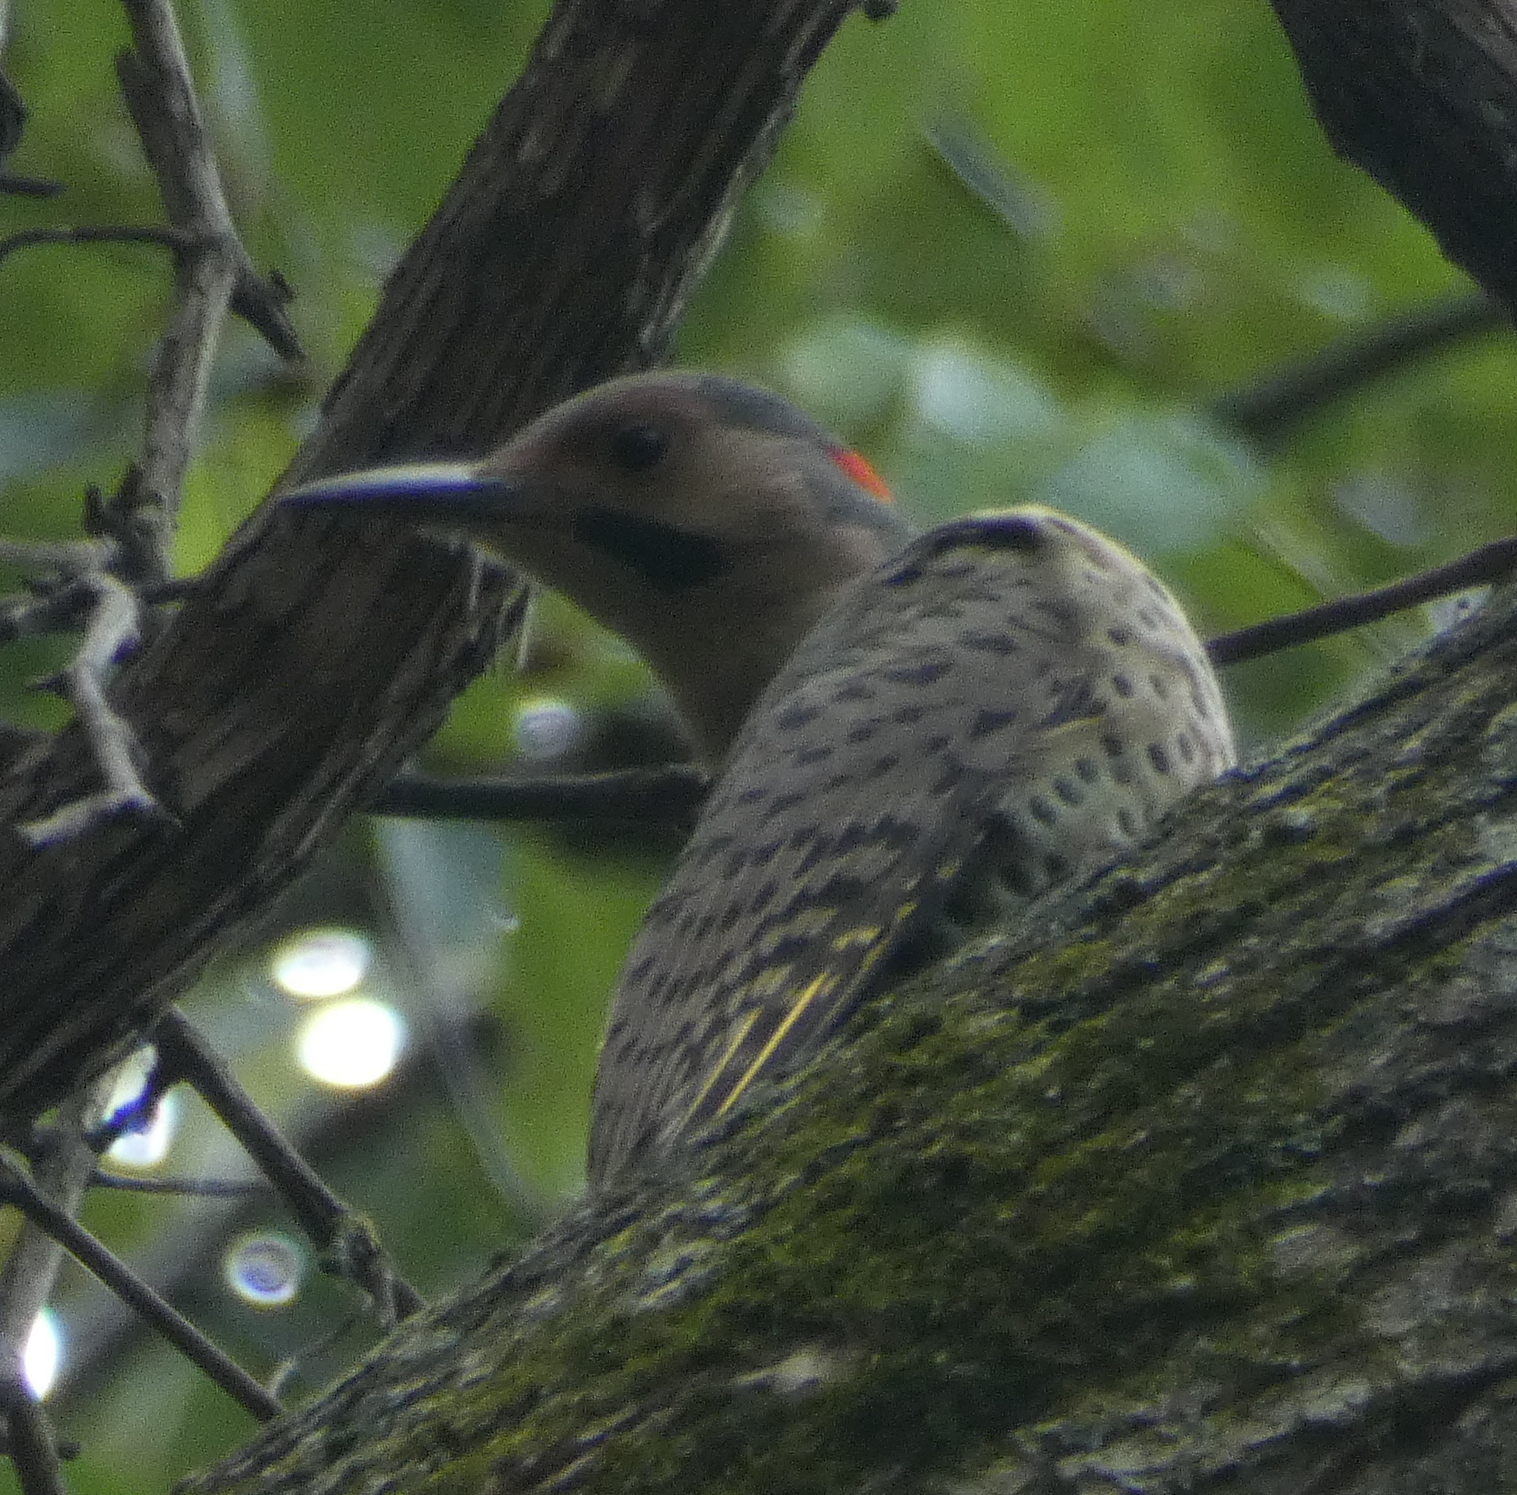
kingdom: Animalia
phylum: Chordata
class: Aves
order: Piciformes
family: Picidae
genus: Colaptes
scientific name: Colaptes auratus
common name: Northern flicker
